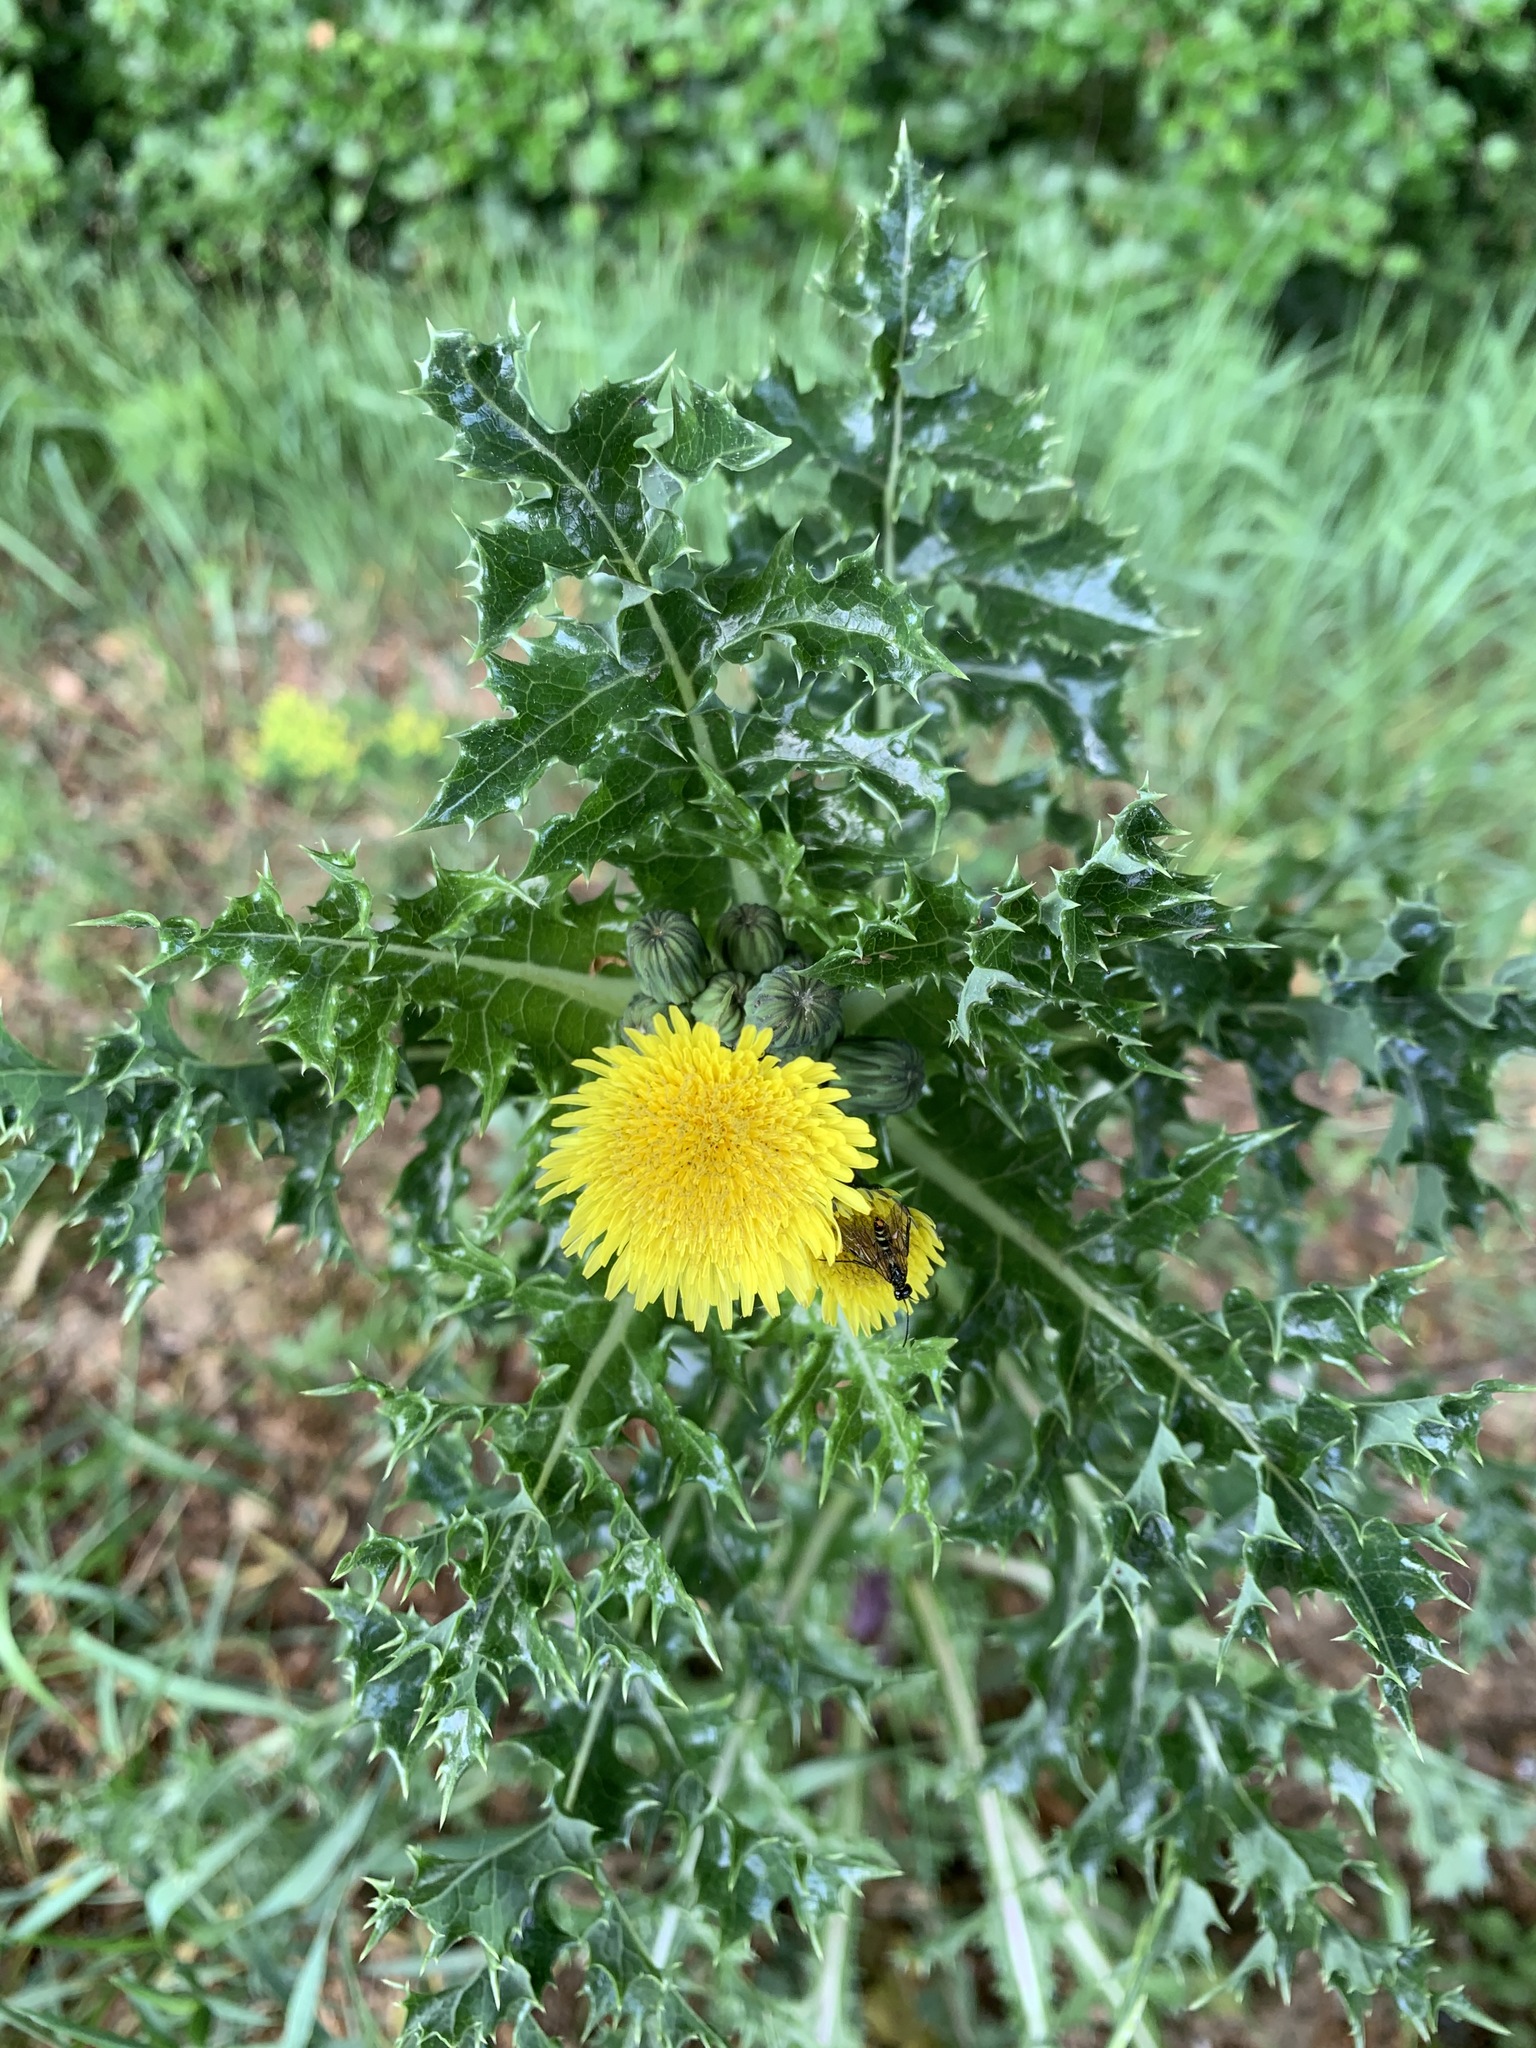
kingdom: Plantae
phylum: Tracheophyta
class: Magnoliopsida
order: Asterales
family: Asteraceae
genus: Sonchus
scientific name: Sonchus asper
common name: Prickly sow-thistle
